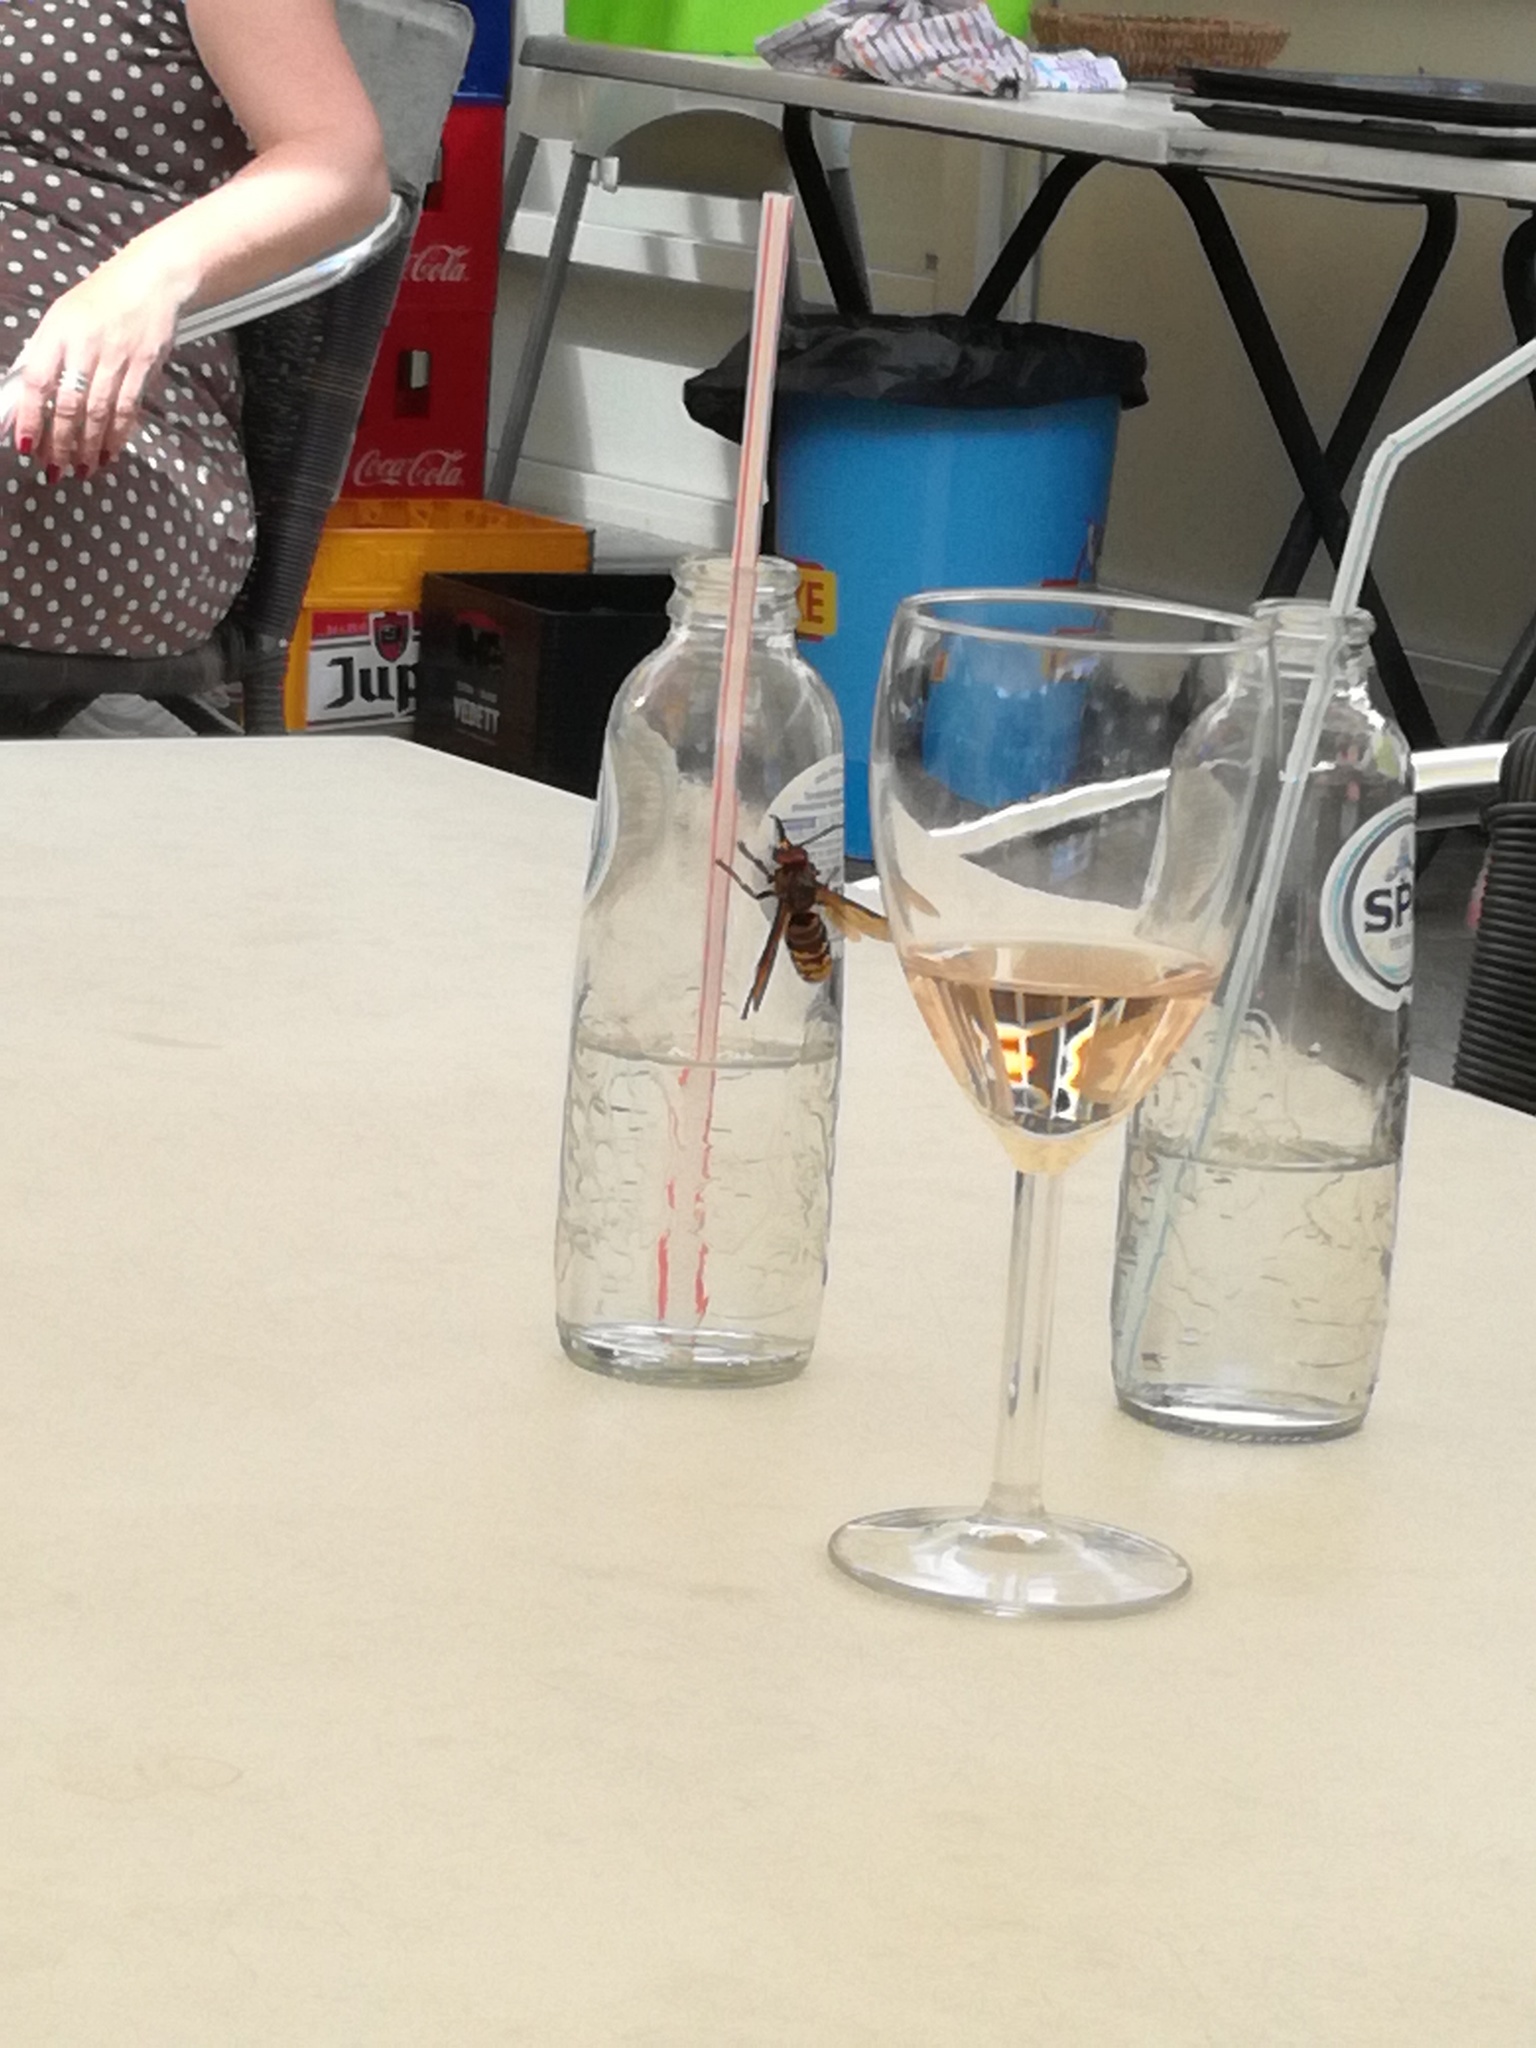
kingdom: Animalia
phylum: Arthropoda
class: Insecta
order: Hymenoptera
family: Vespidae
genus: Vespa
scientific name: Vespa crabro
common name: Hornet
